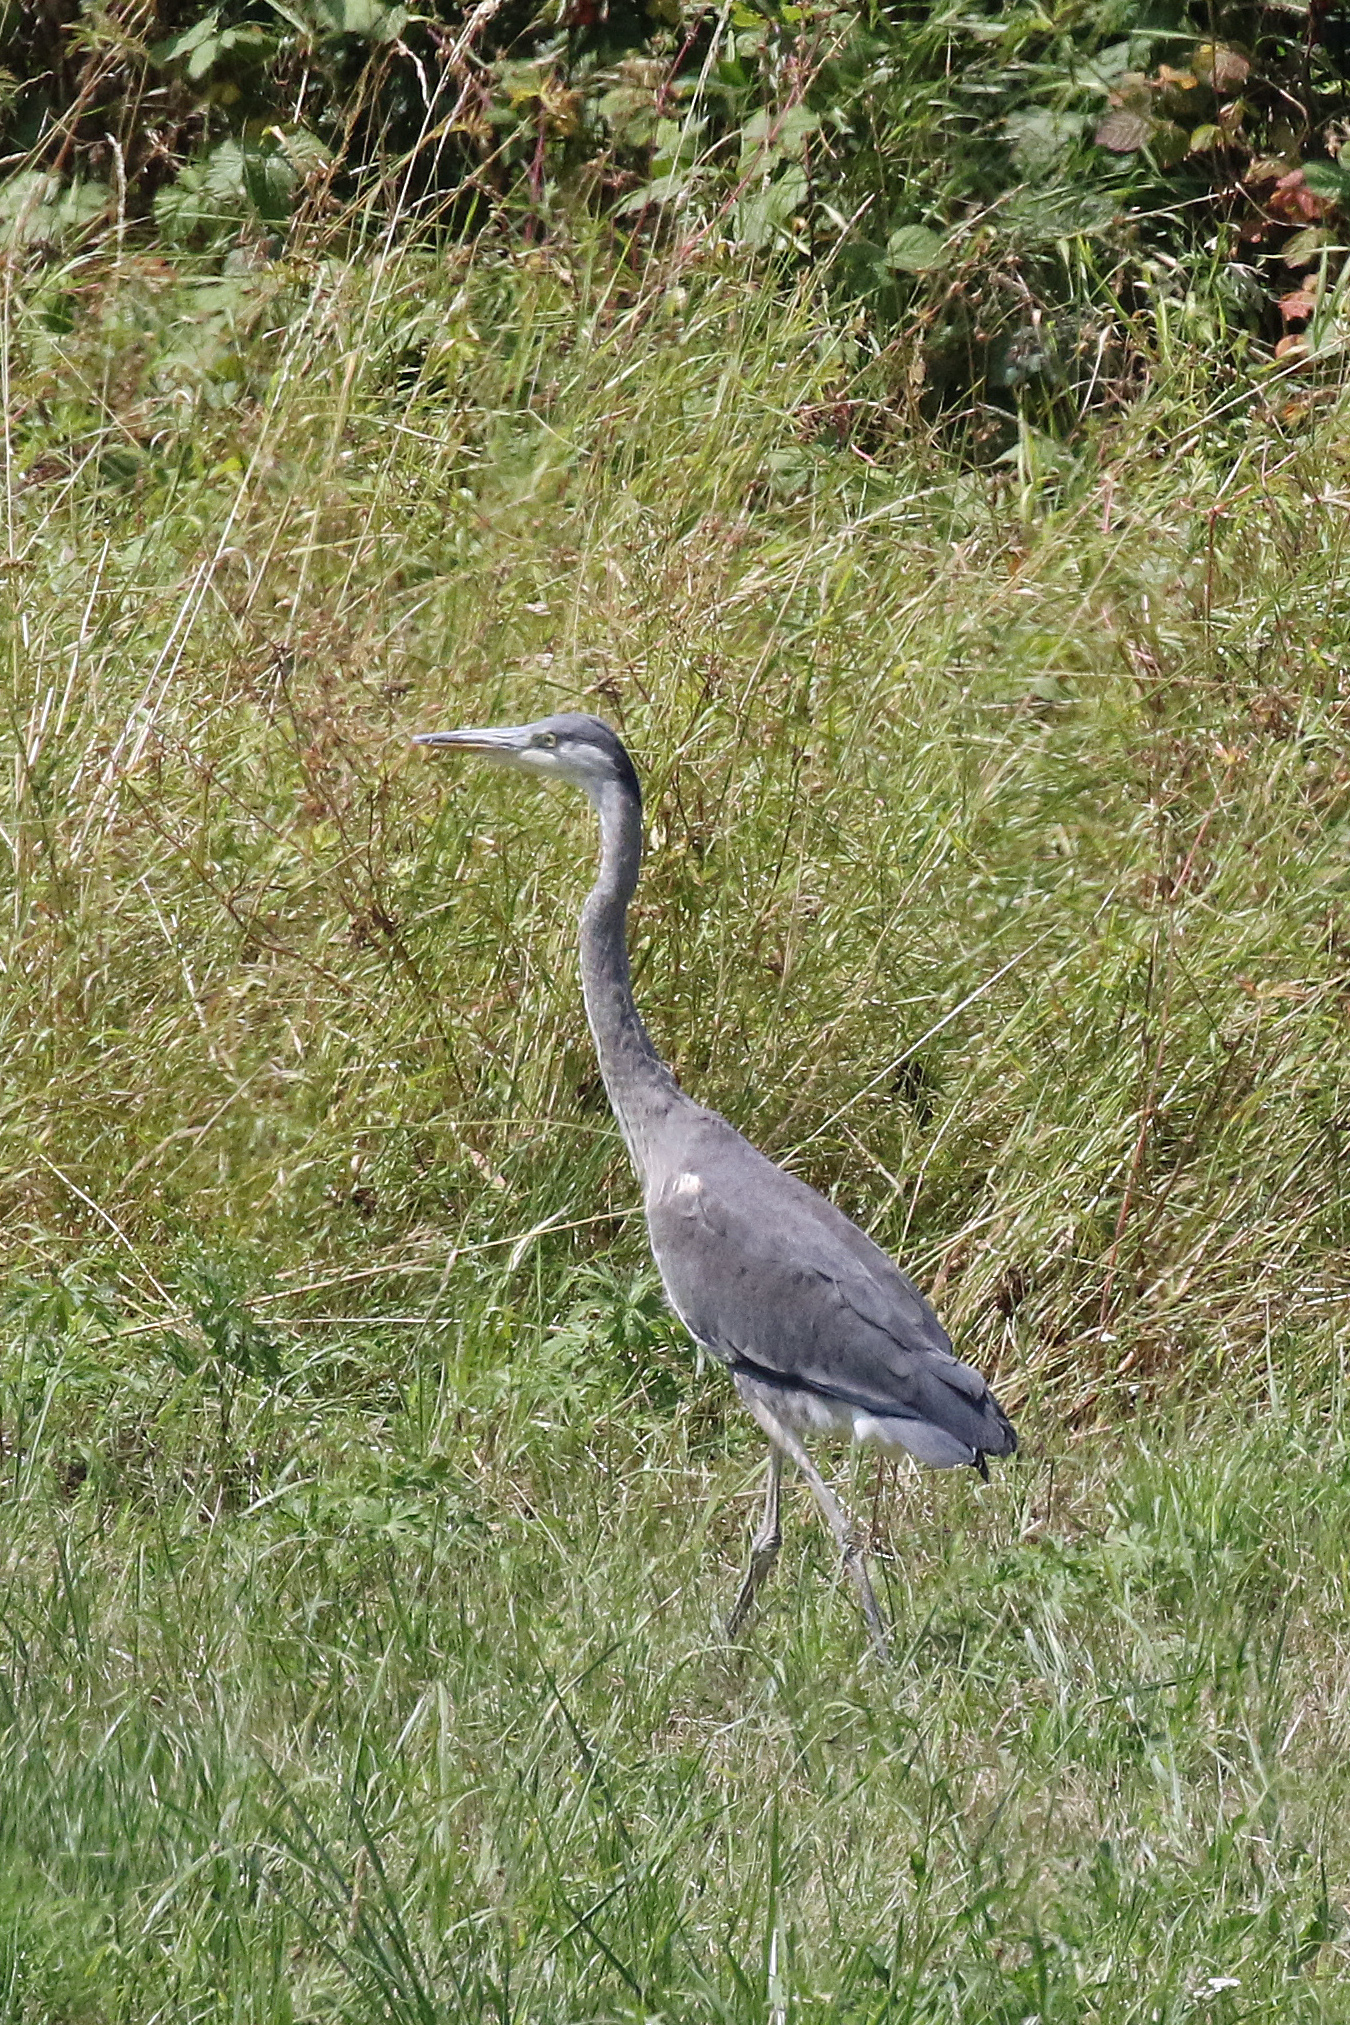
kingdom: Animalia
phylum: Chordata
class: Aves
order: Pelecaniformes
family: Ardeidae
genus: Ardea
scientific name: Ardea cinerea
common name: Grey heron
